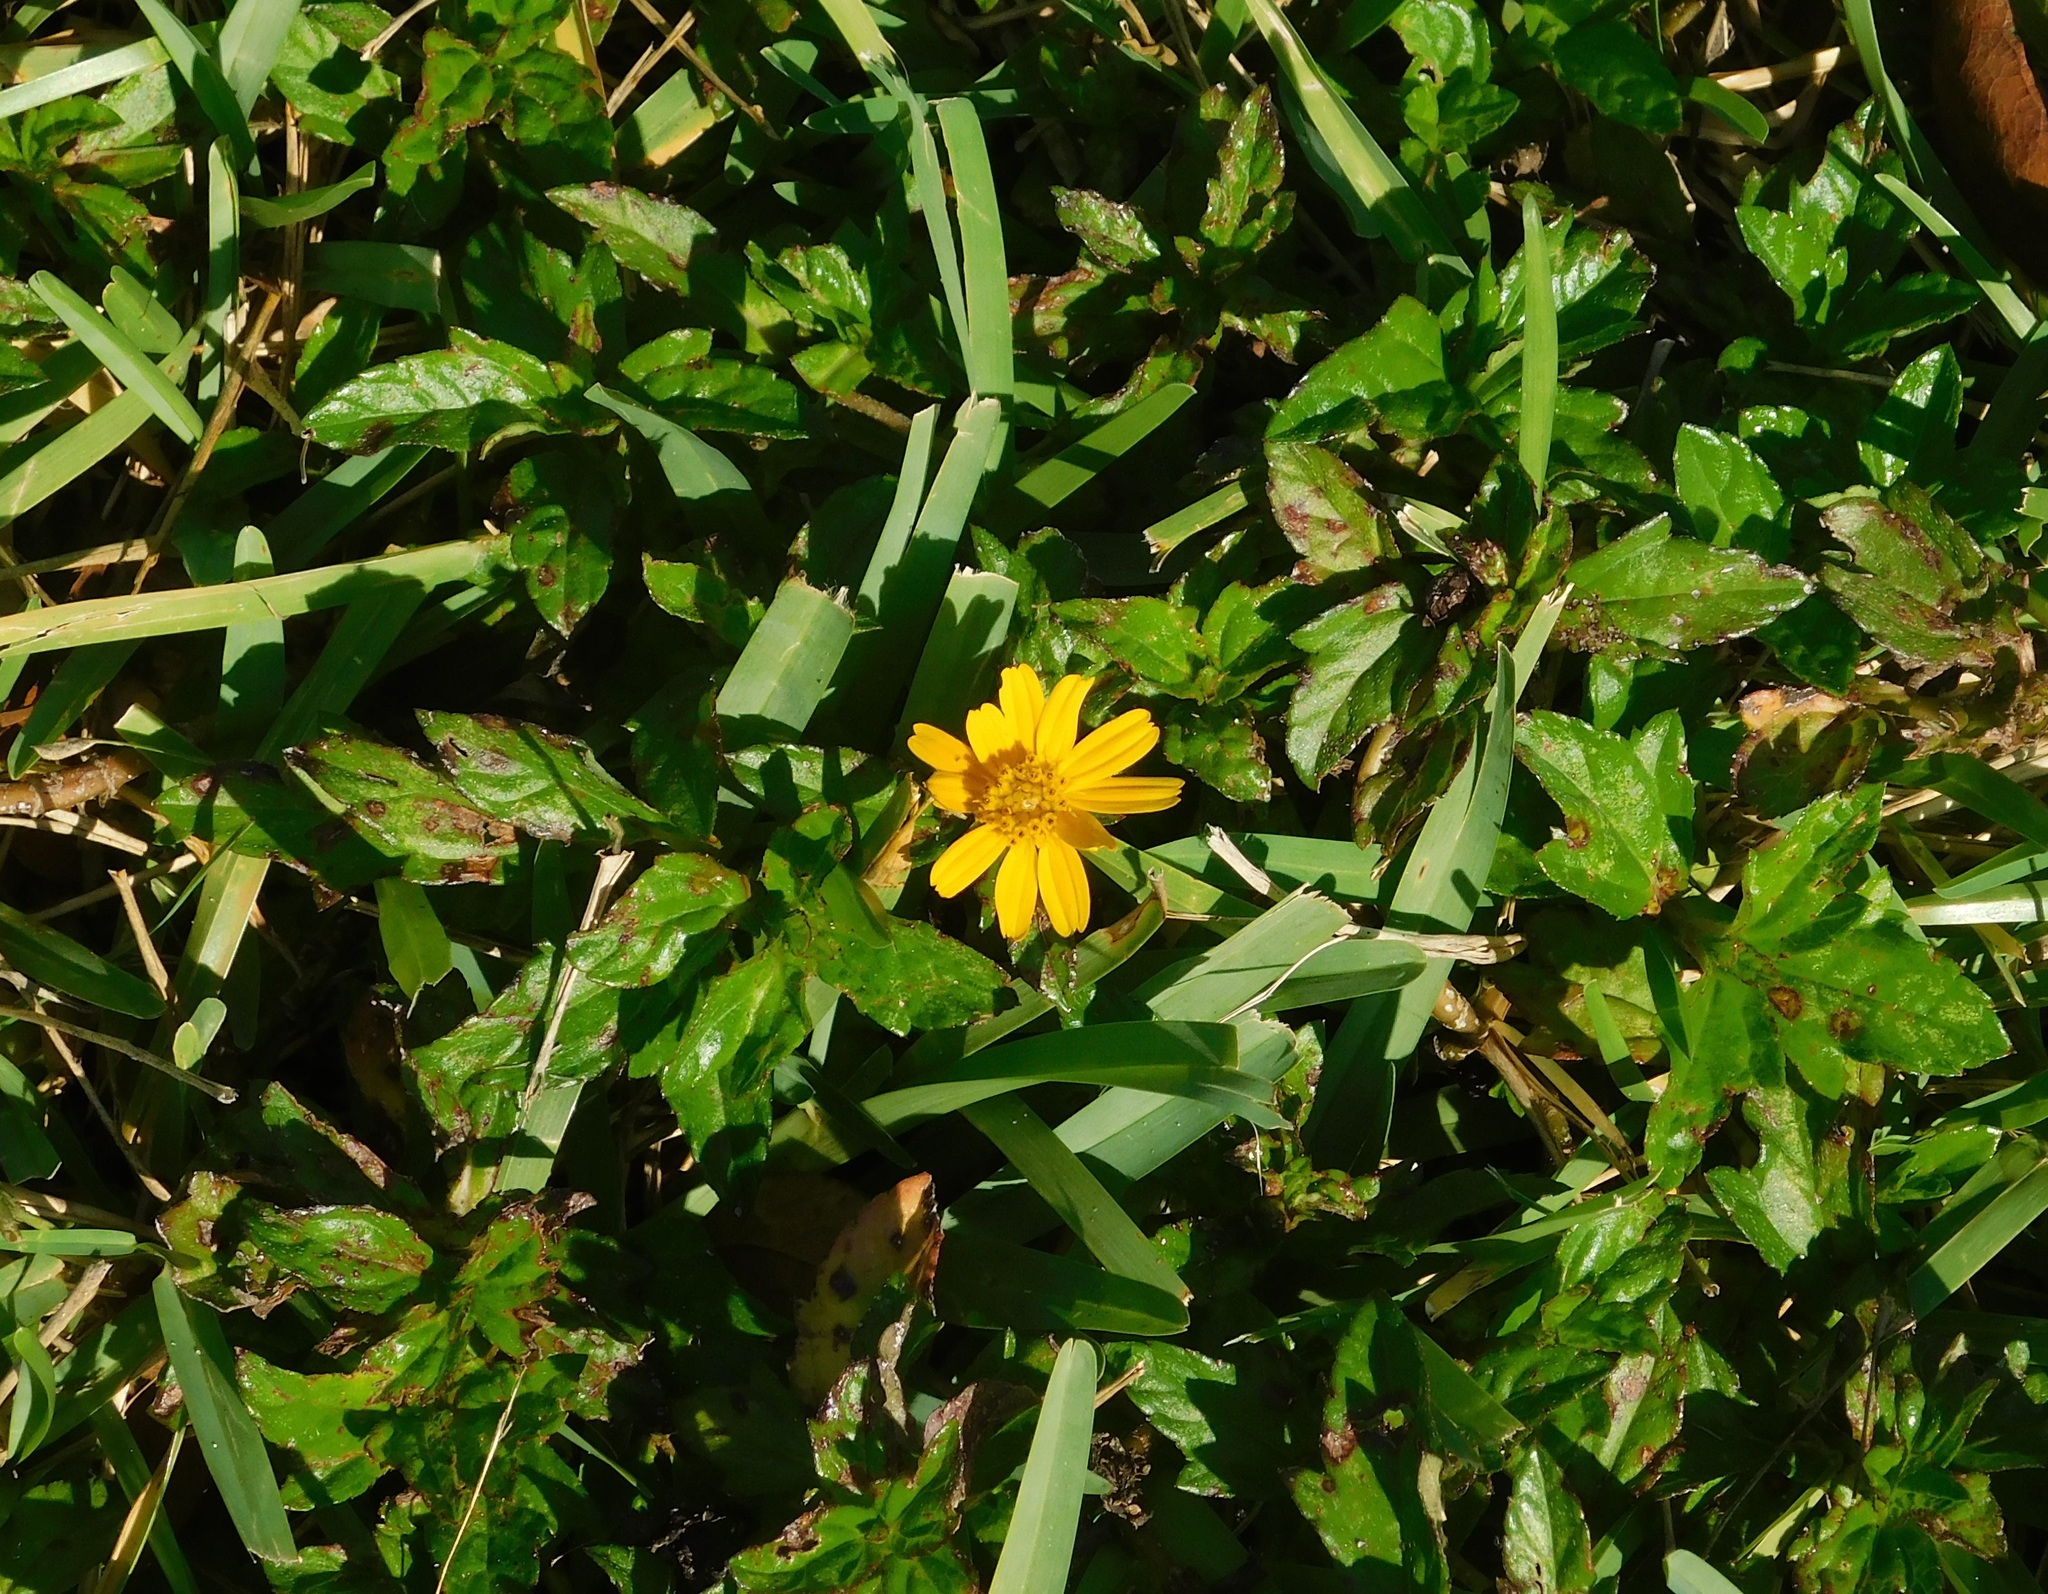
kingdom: Plantae
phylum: Tracheophyta
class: Magnoliopsida
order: Asterales
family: Asteraceae
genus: Sphagneticola
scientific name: Sphagneticola trilobata
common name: Bay biscayne creeping-oxeye
